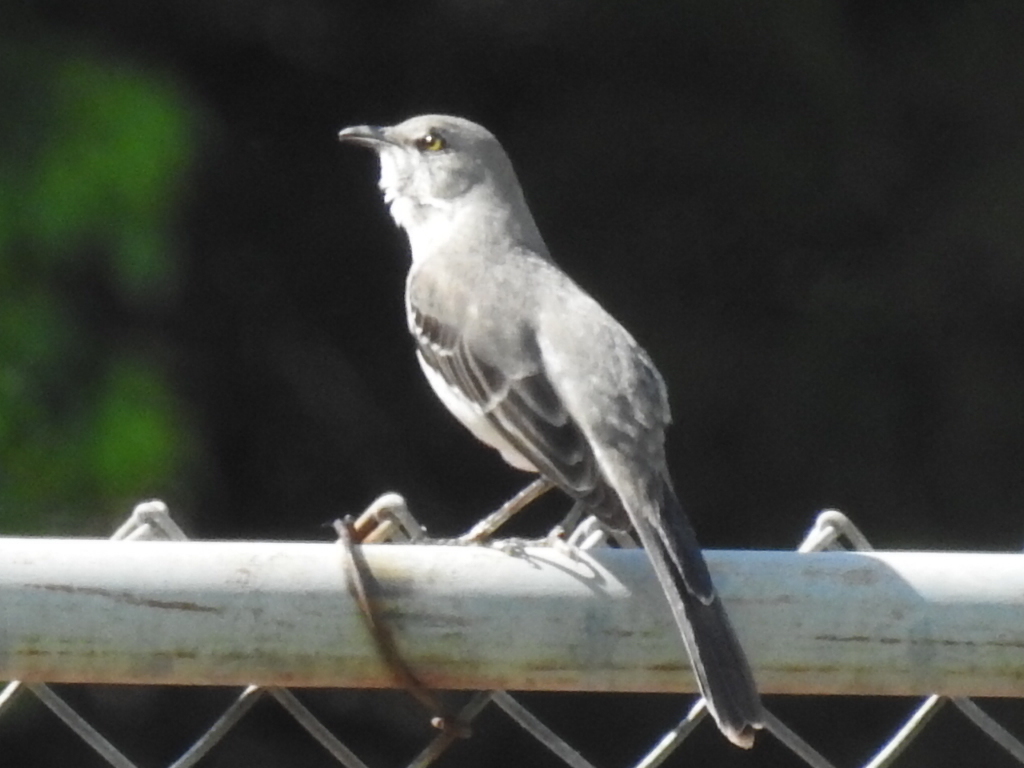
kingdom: Animalia
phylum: Chordata
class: Aves
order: Passeriformes
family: Mimidae
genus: Mimus
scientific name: Mimus polyglottos
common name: Northern mockingbird
